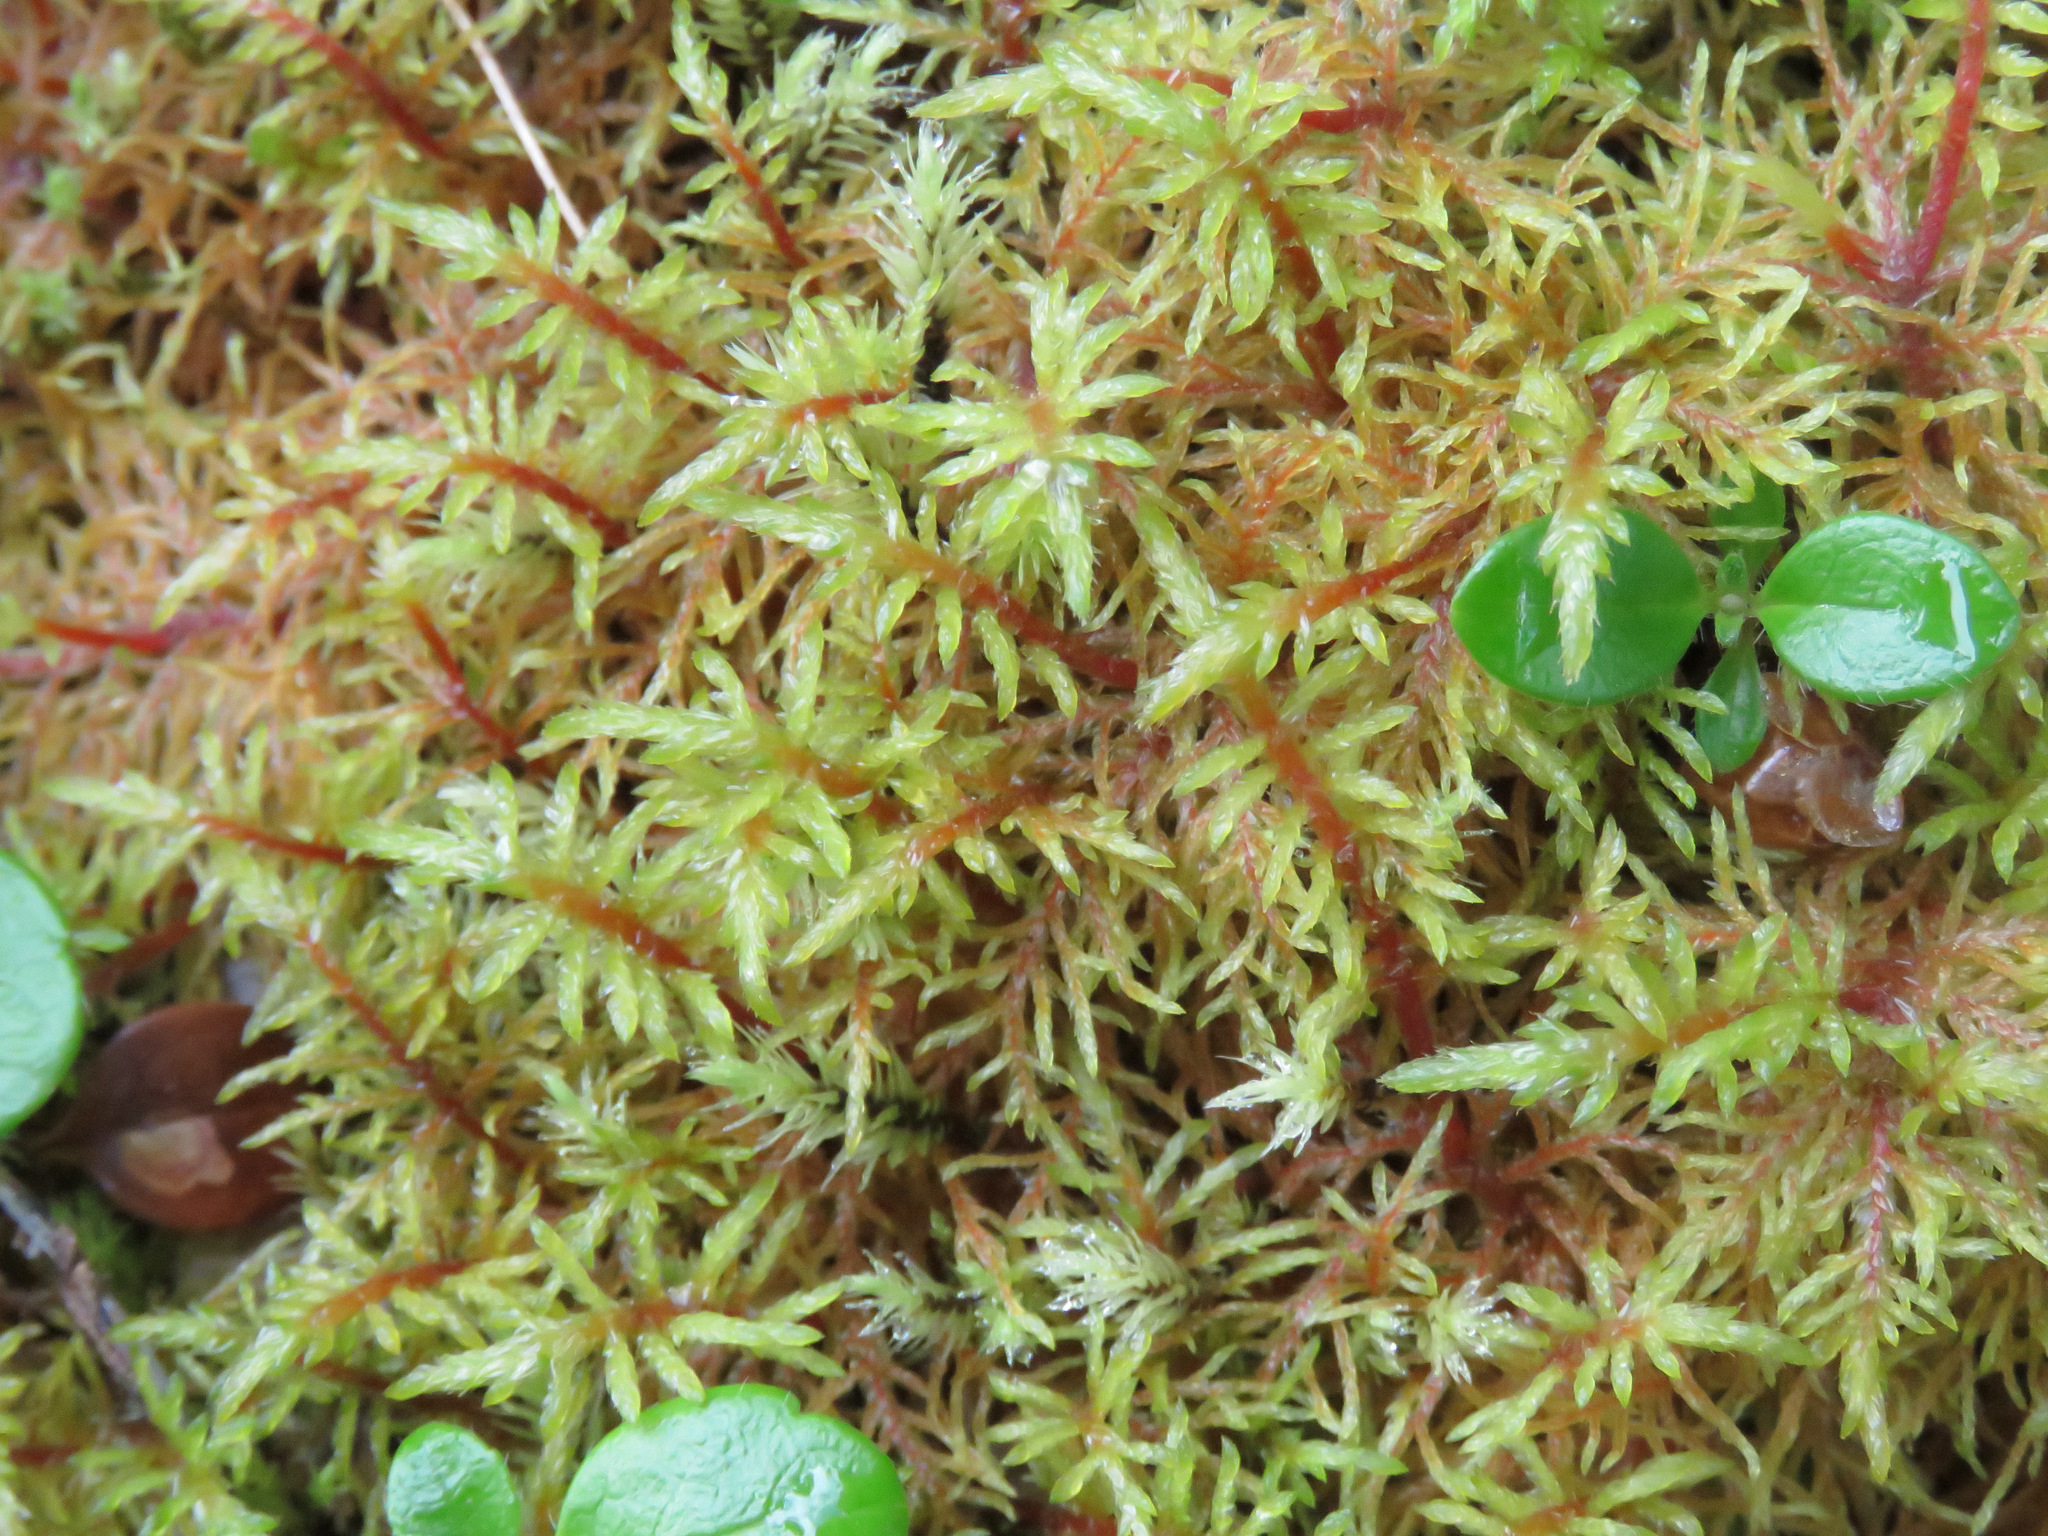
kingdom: Plantae
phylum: Bryophyta
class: Bryopsida
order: Hypnales
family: Hylocomiaceae
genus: Pleurozium
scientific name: Pleurozium schreberi
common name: Red-stemmed feather moss
